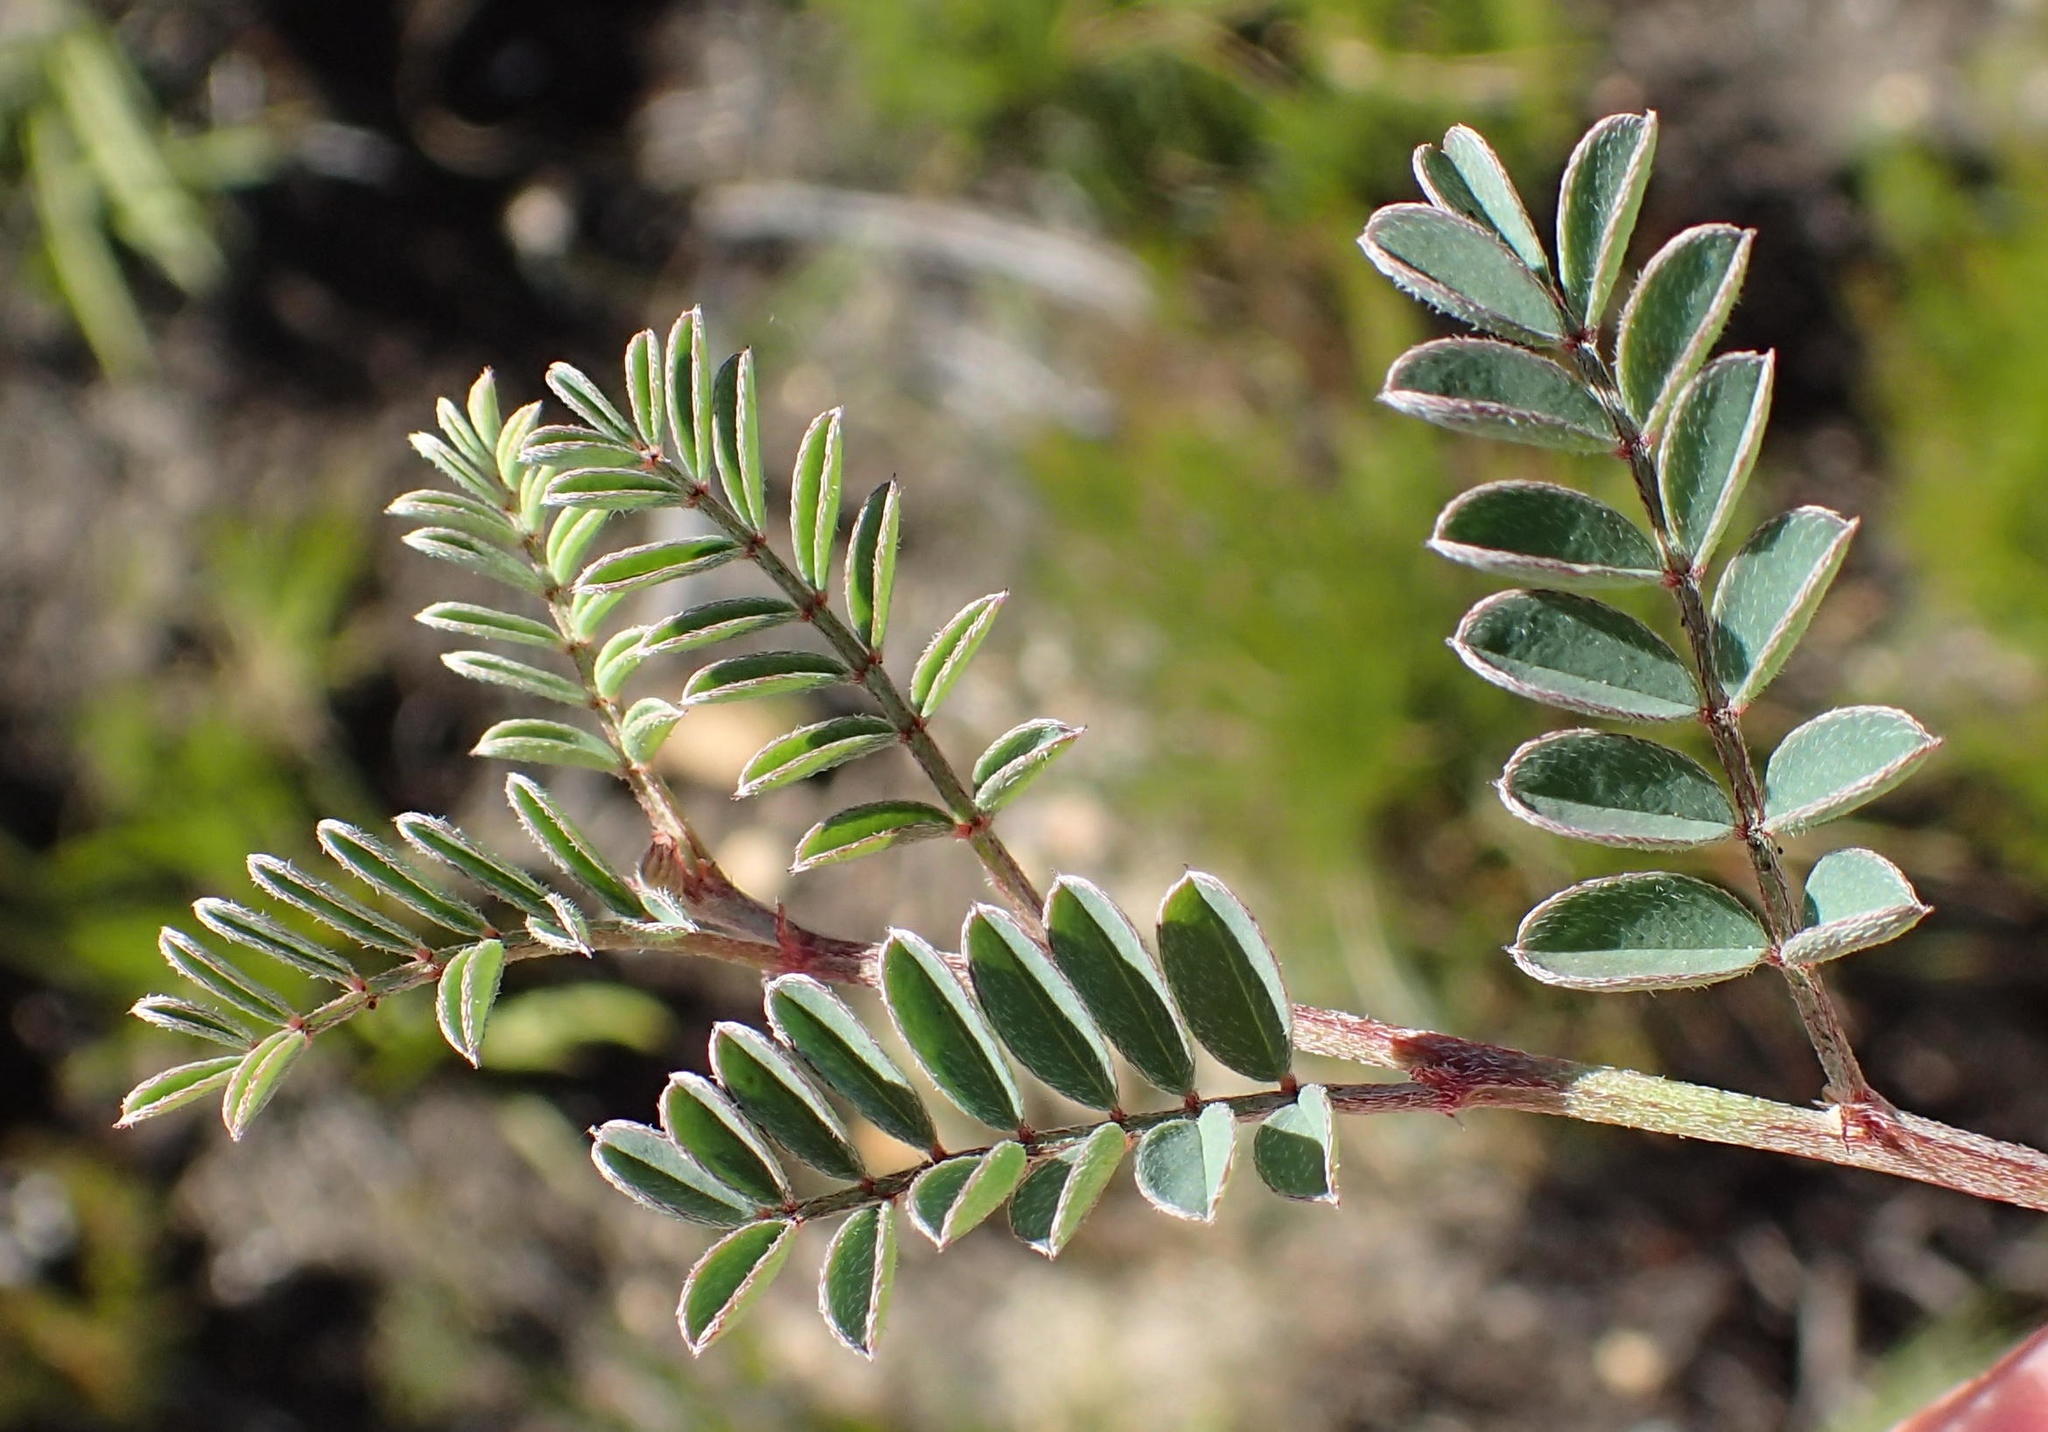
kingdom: Plantae
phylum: Tracheophyta
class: Magnoliopsida
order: Fabales
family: Fabaceae
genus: Indigofera
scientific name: Indigofera declinata
